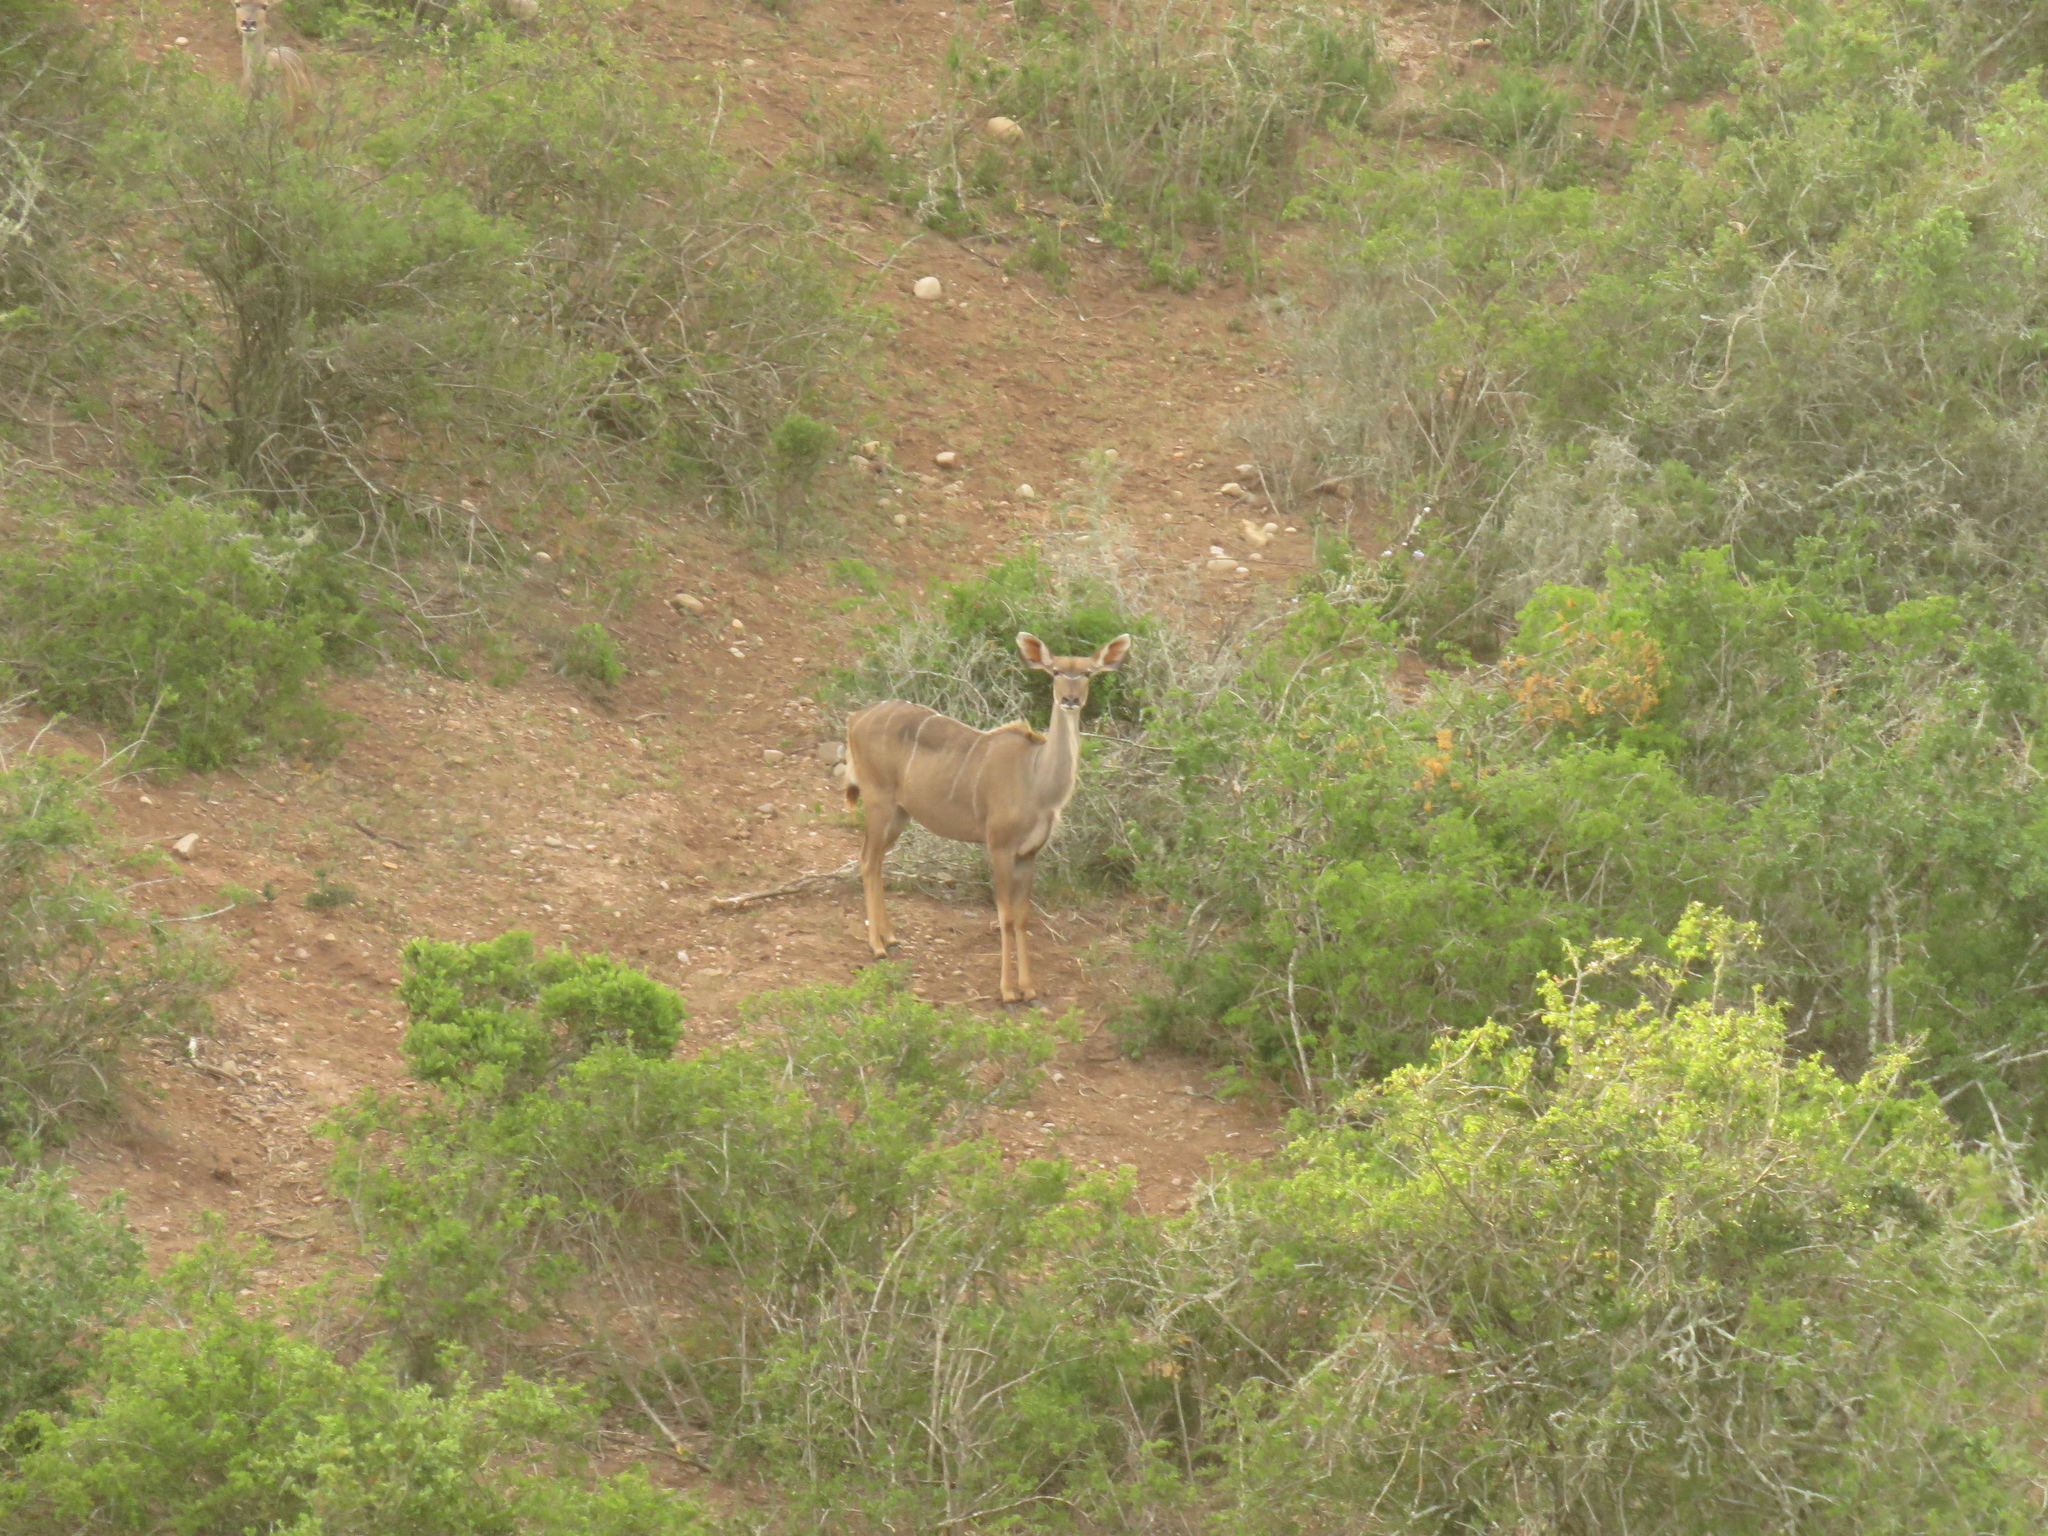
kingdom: Animalia
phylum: Chordata
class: Mammalia
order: Artiodactyla
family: Bovidae
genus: Tragelaphus
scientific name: Tragelaphus strepsiceros
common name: Greater kudu
